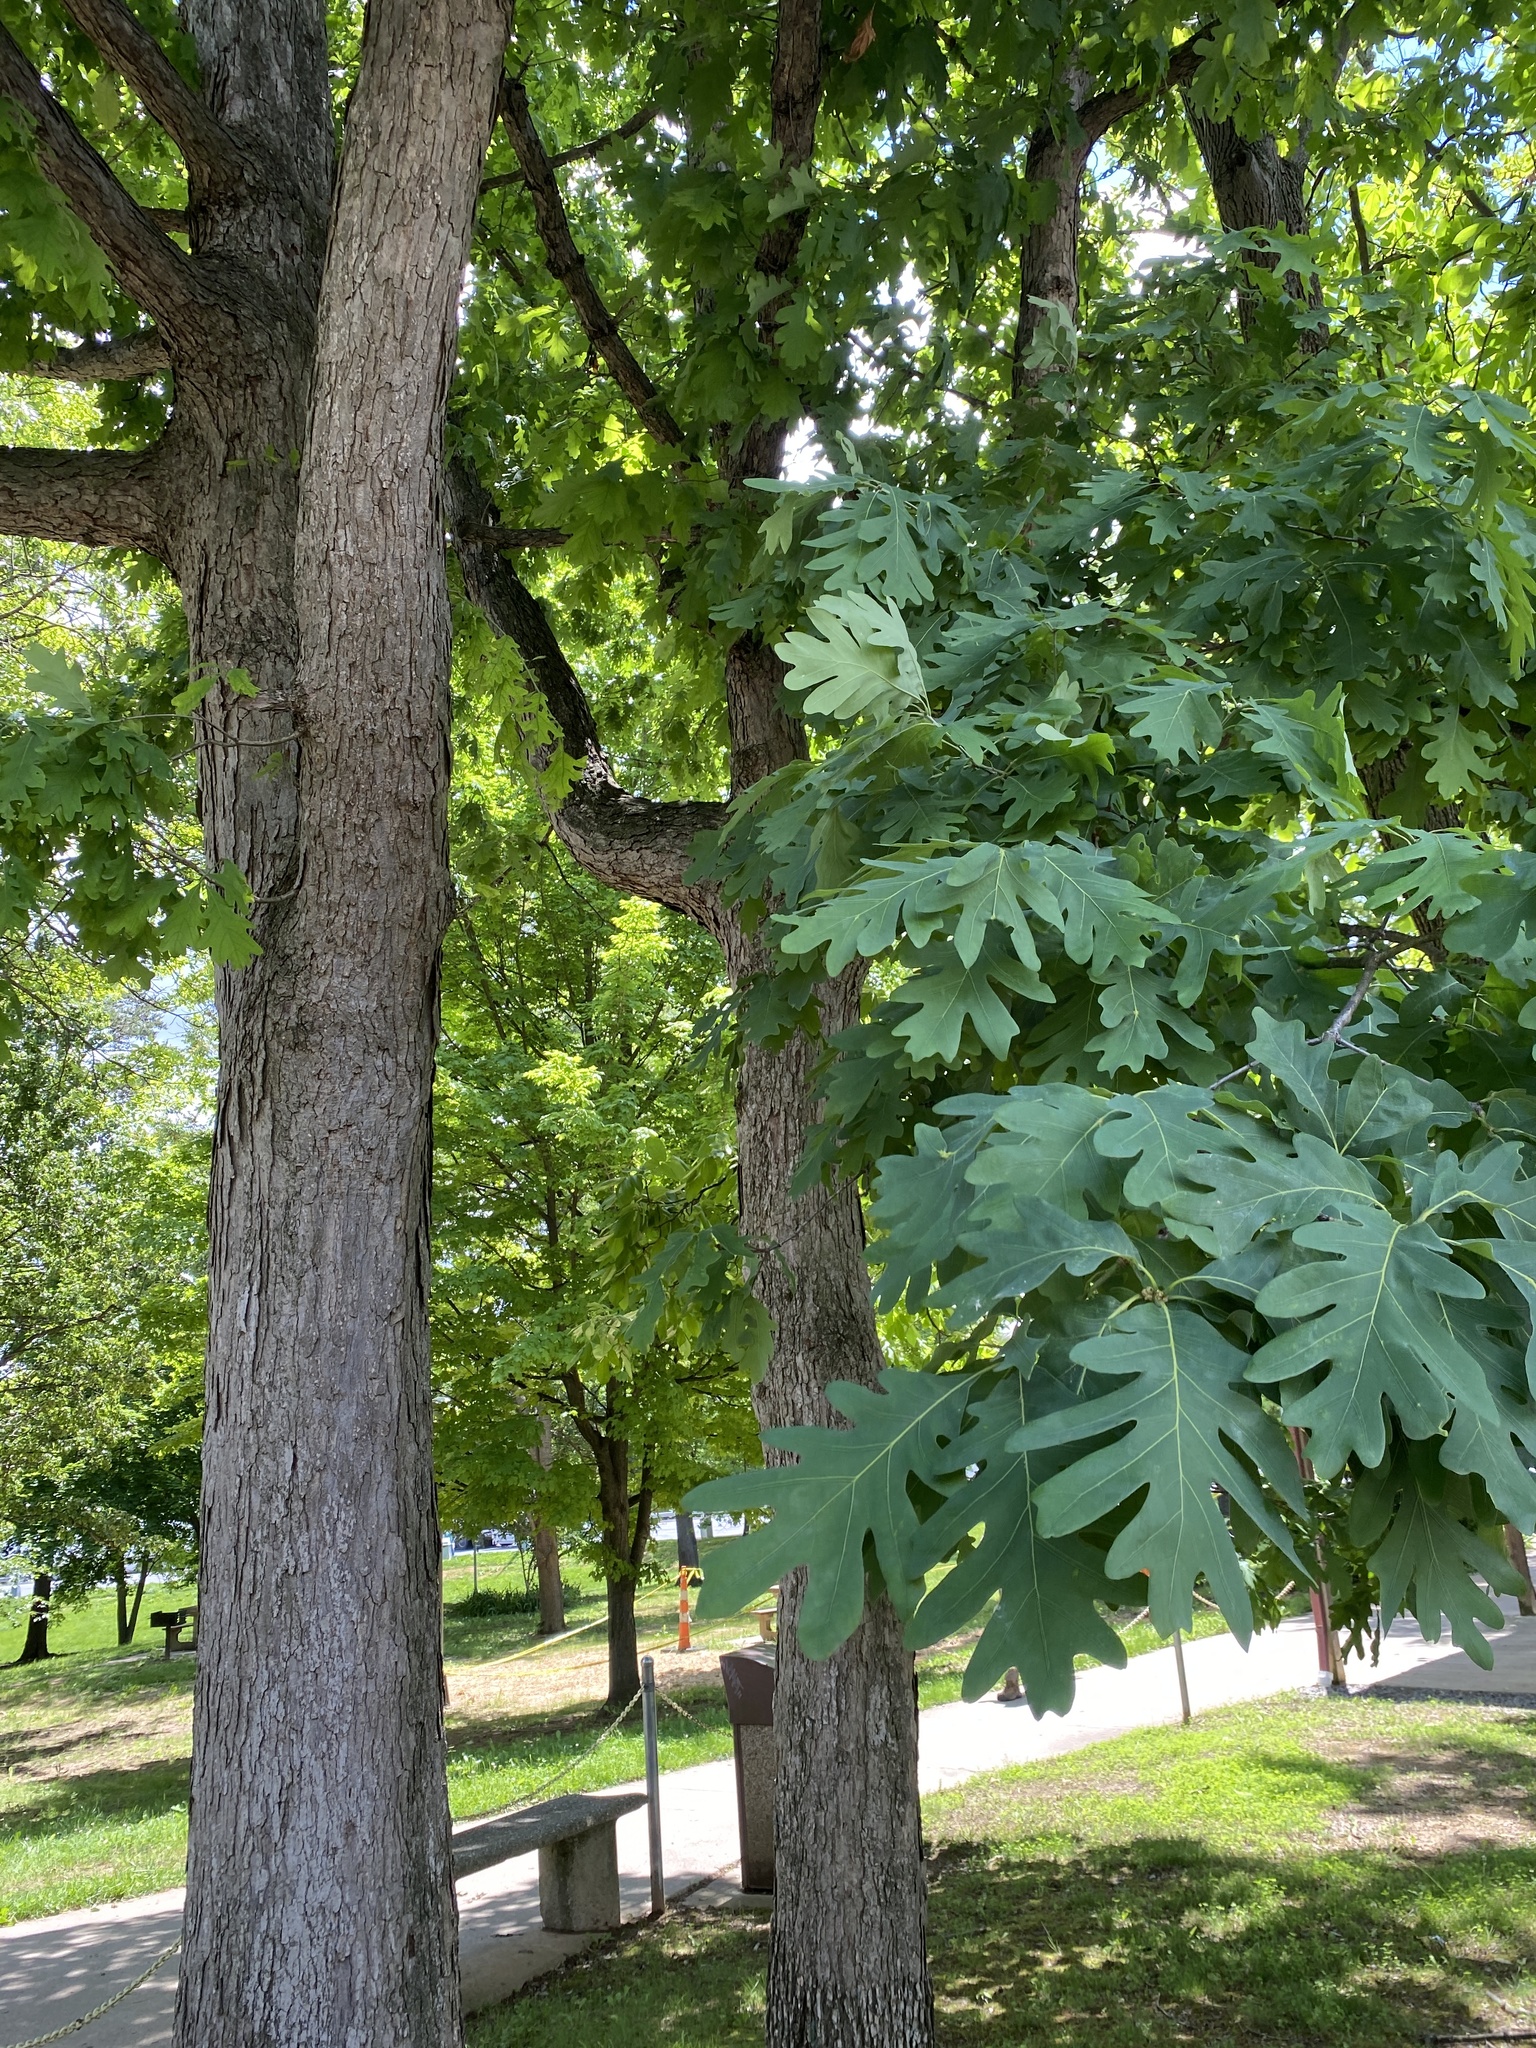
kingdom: Plantae
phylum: Tracheophyta
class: Magnoliopsida
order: Fagales
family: Fagaceae
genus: Quercus
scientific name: Quercus alba
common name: White oak
